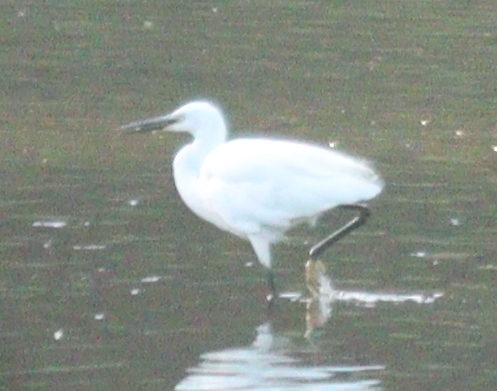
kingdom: Animalia
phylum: Chordata
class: Aves
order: Pelecaniformes
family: Ardeidae
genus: Egretta
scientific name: Egretta garzetta
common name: Little egret
